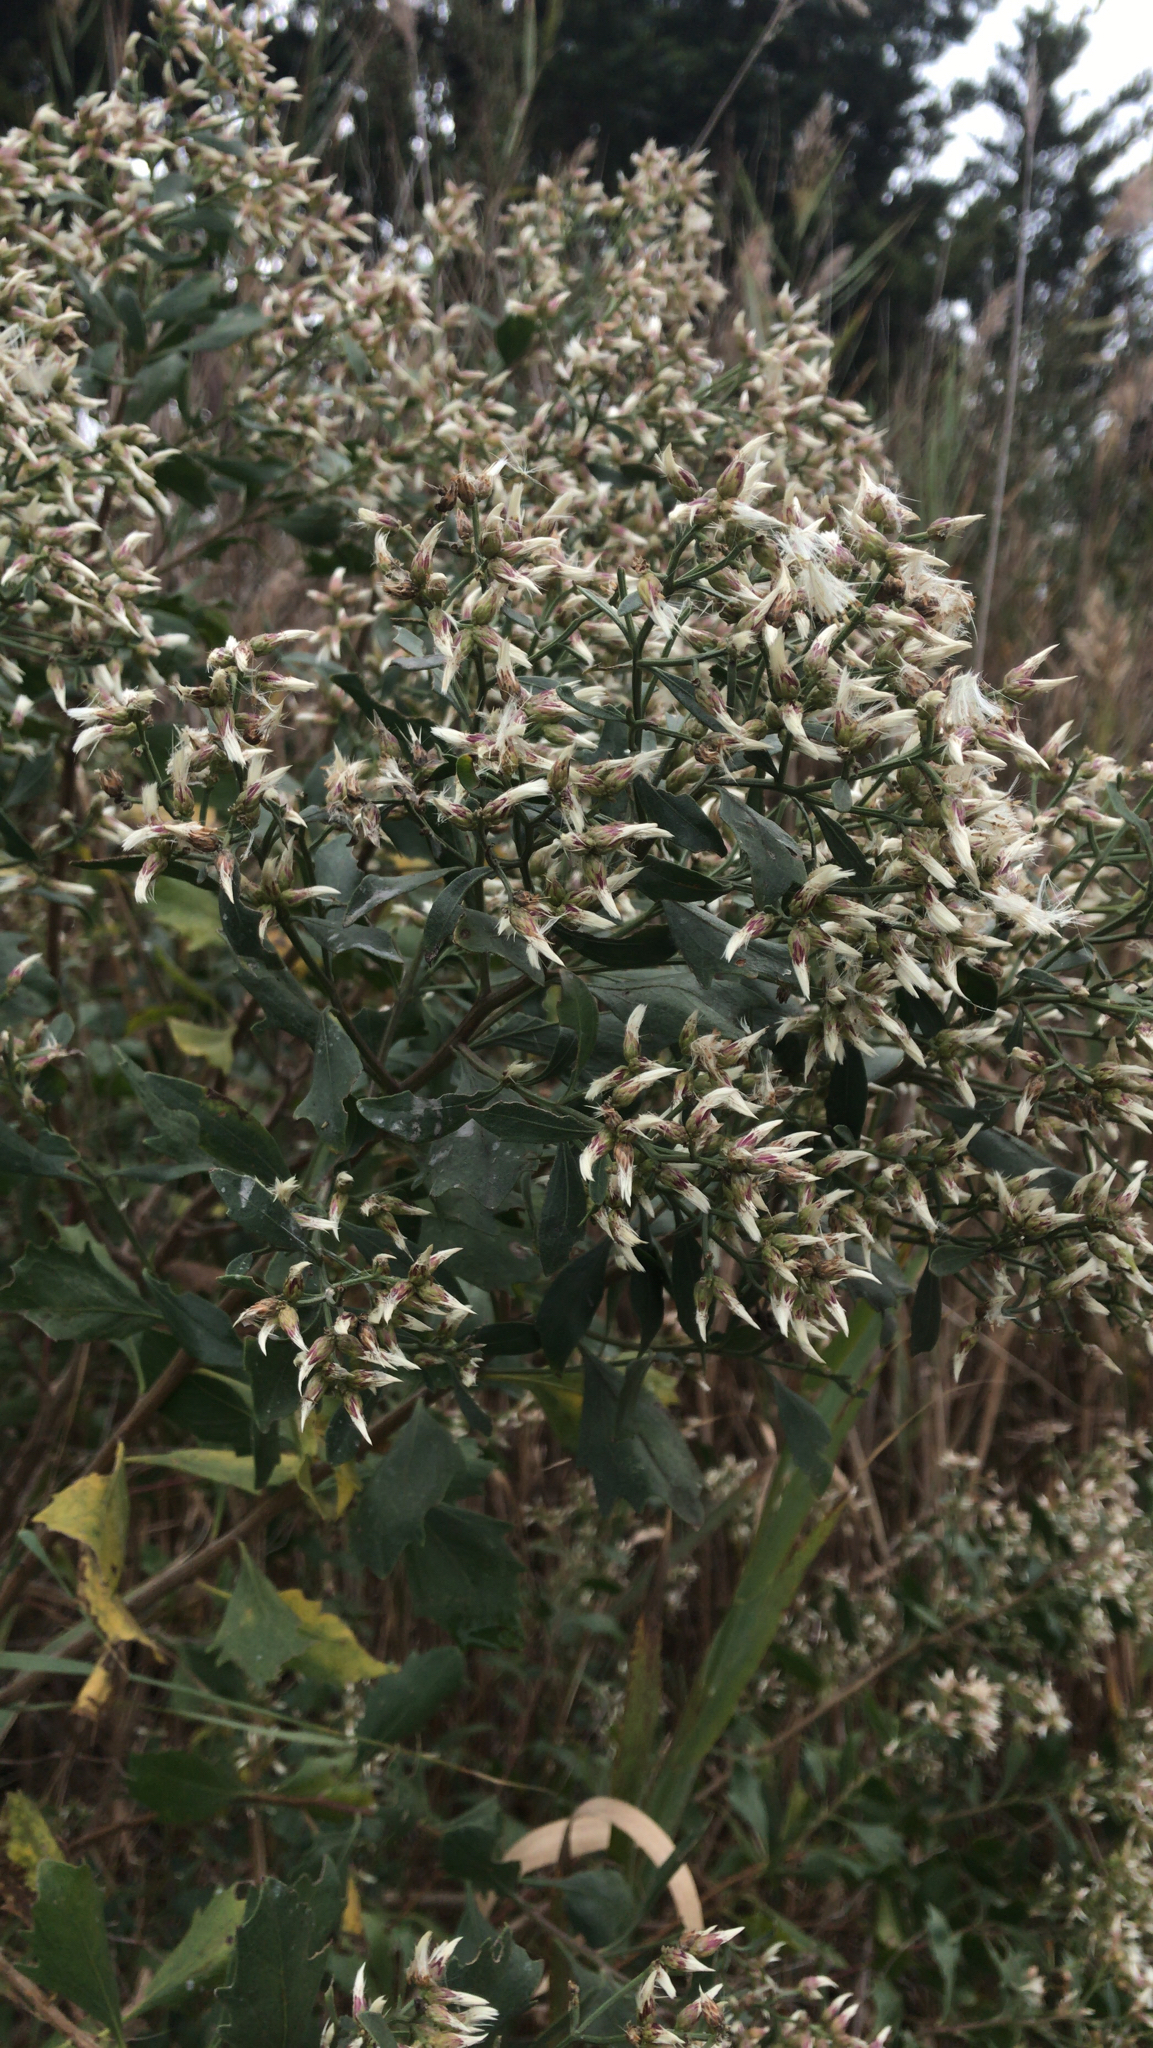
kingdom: Plantae
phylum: Tracheophyta
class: Magnoliopsida
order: Asterales
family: Asteraceae
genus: Baccharis
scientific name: Baccharis halimifolia
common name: Eastern baccharis
